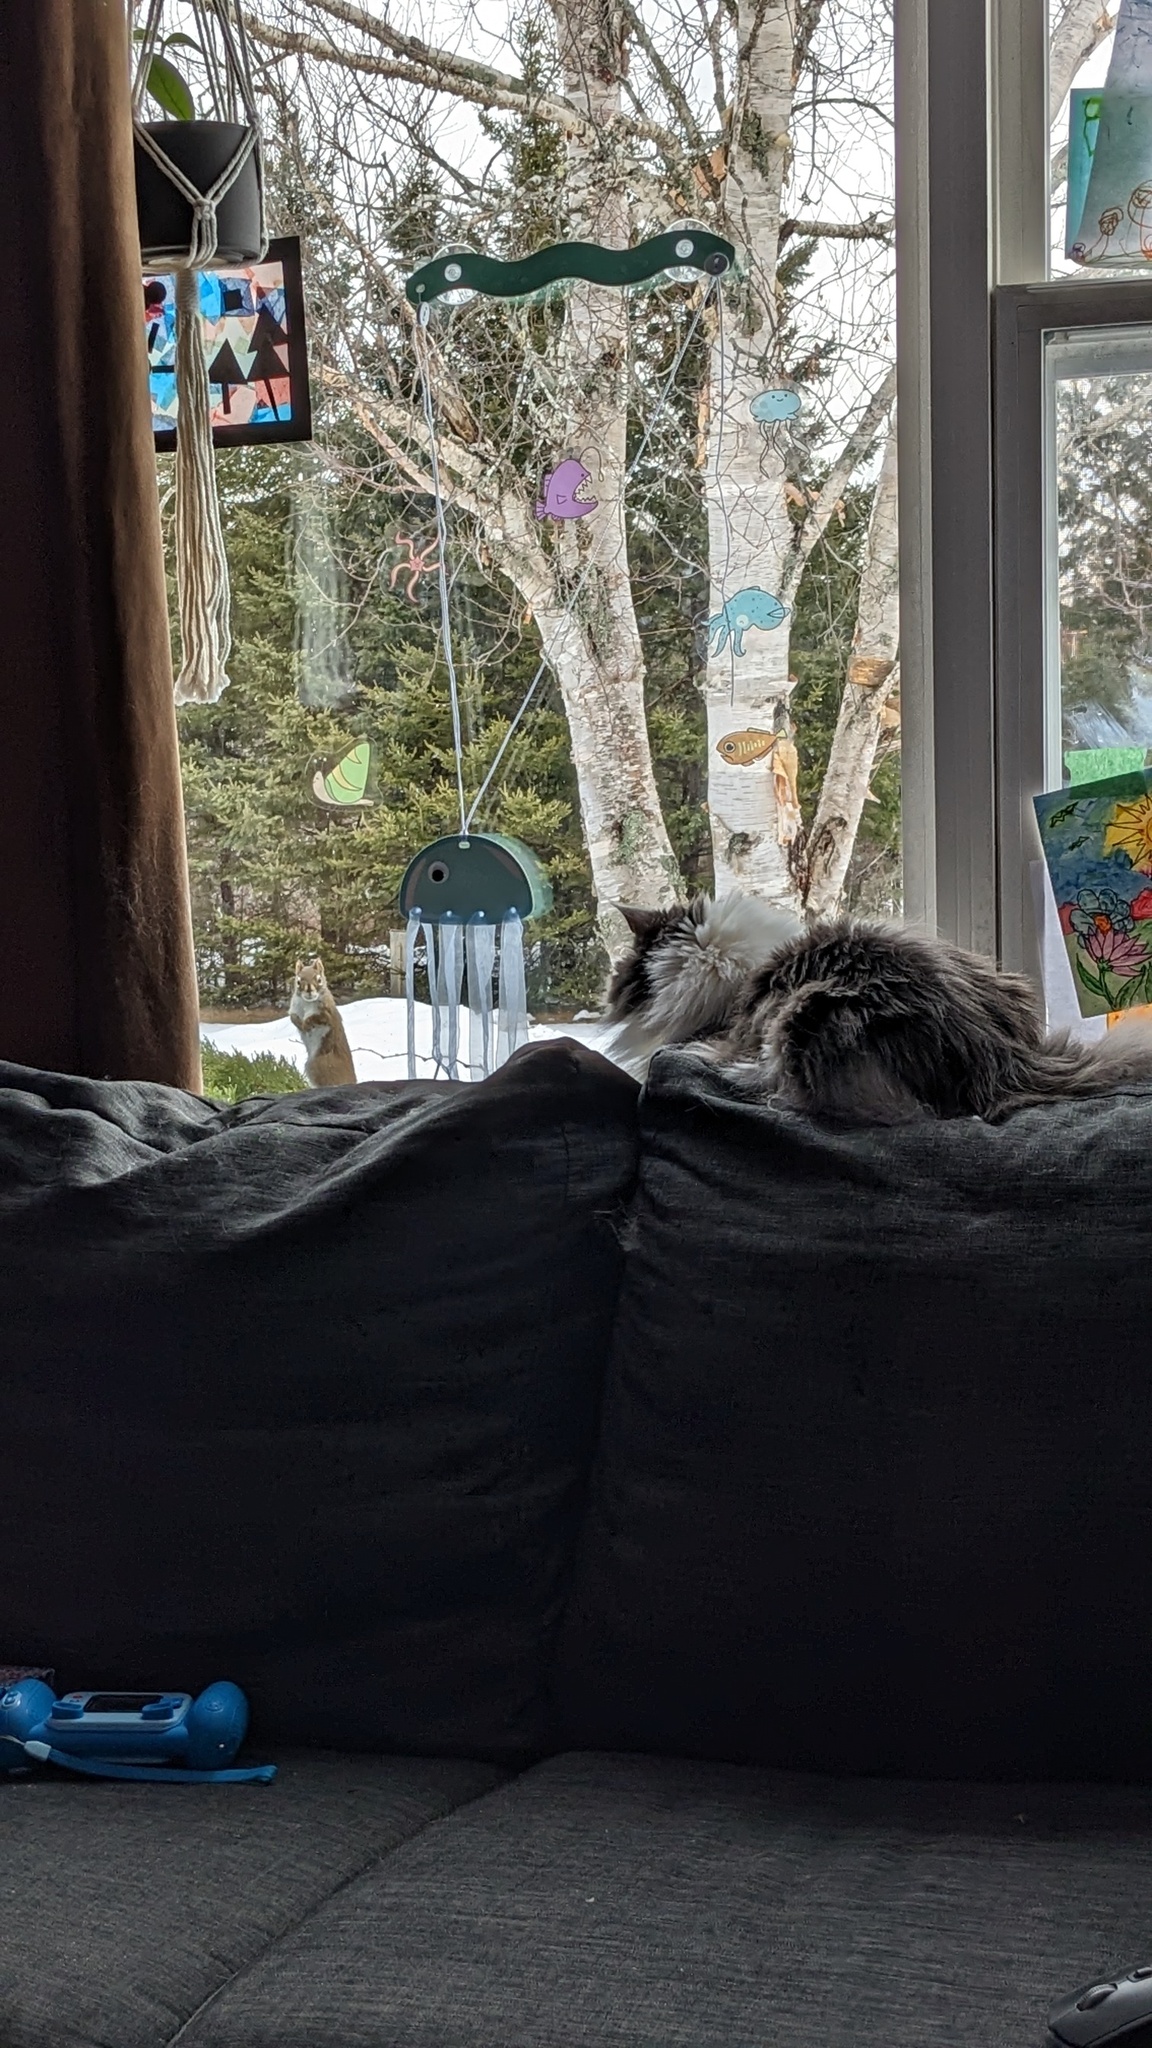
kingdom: Animalia
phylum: Chordata
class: Mammalia
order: Rodentia
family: Sciuridae
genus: Tamiasciurus
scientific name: Tamiasciurus hudsonicus
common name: Red squirrel
